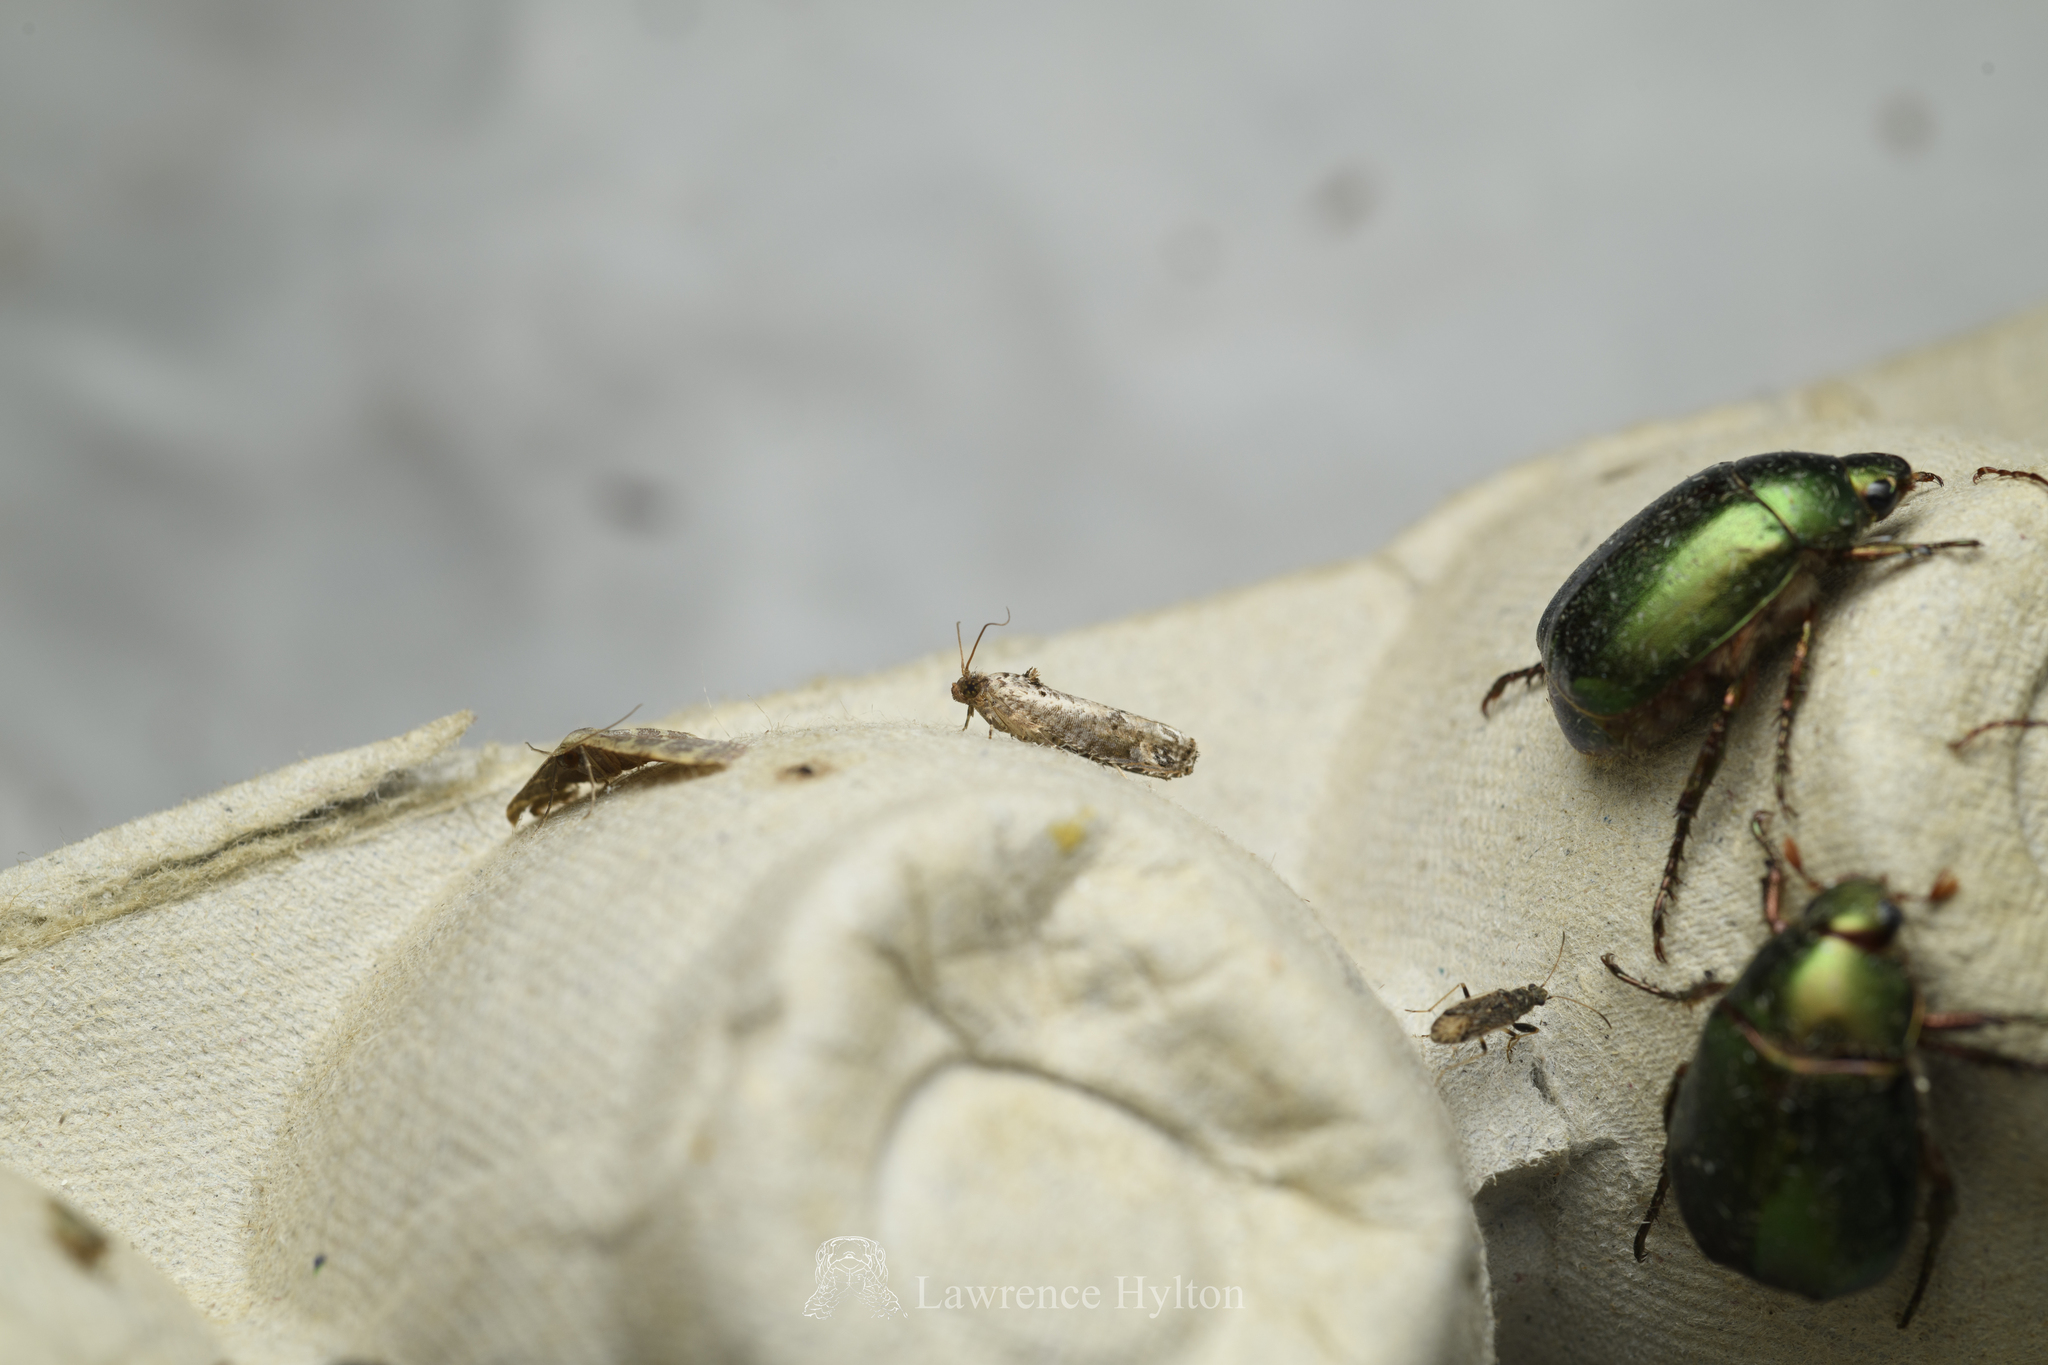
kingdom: Animalia
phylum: Arthropoda
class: Insecta
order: Lepidoptera
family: Tortricidae
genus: Dudua
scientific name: Dudua aprobola
